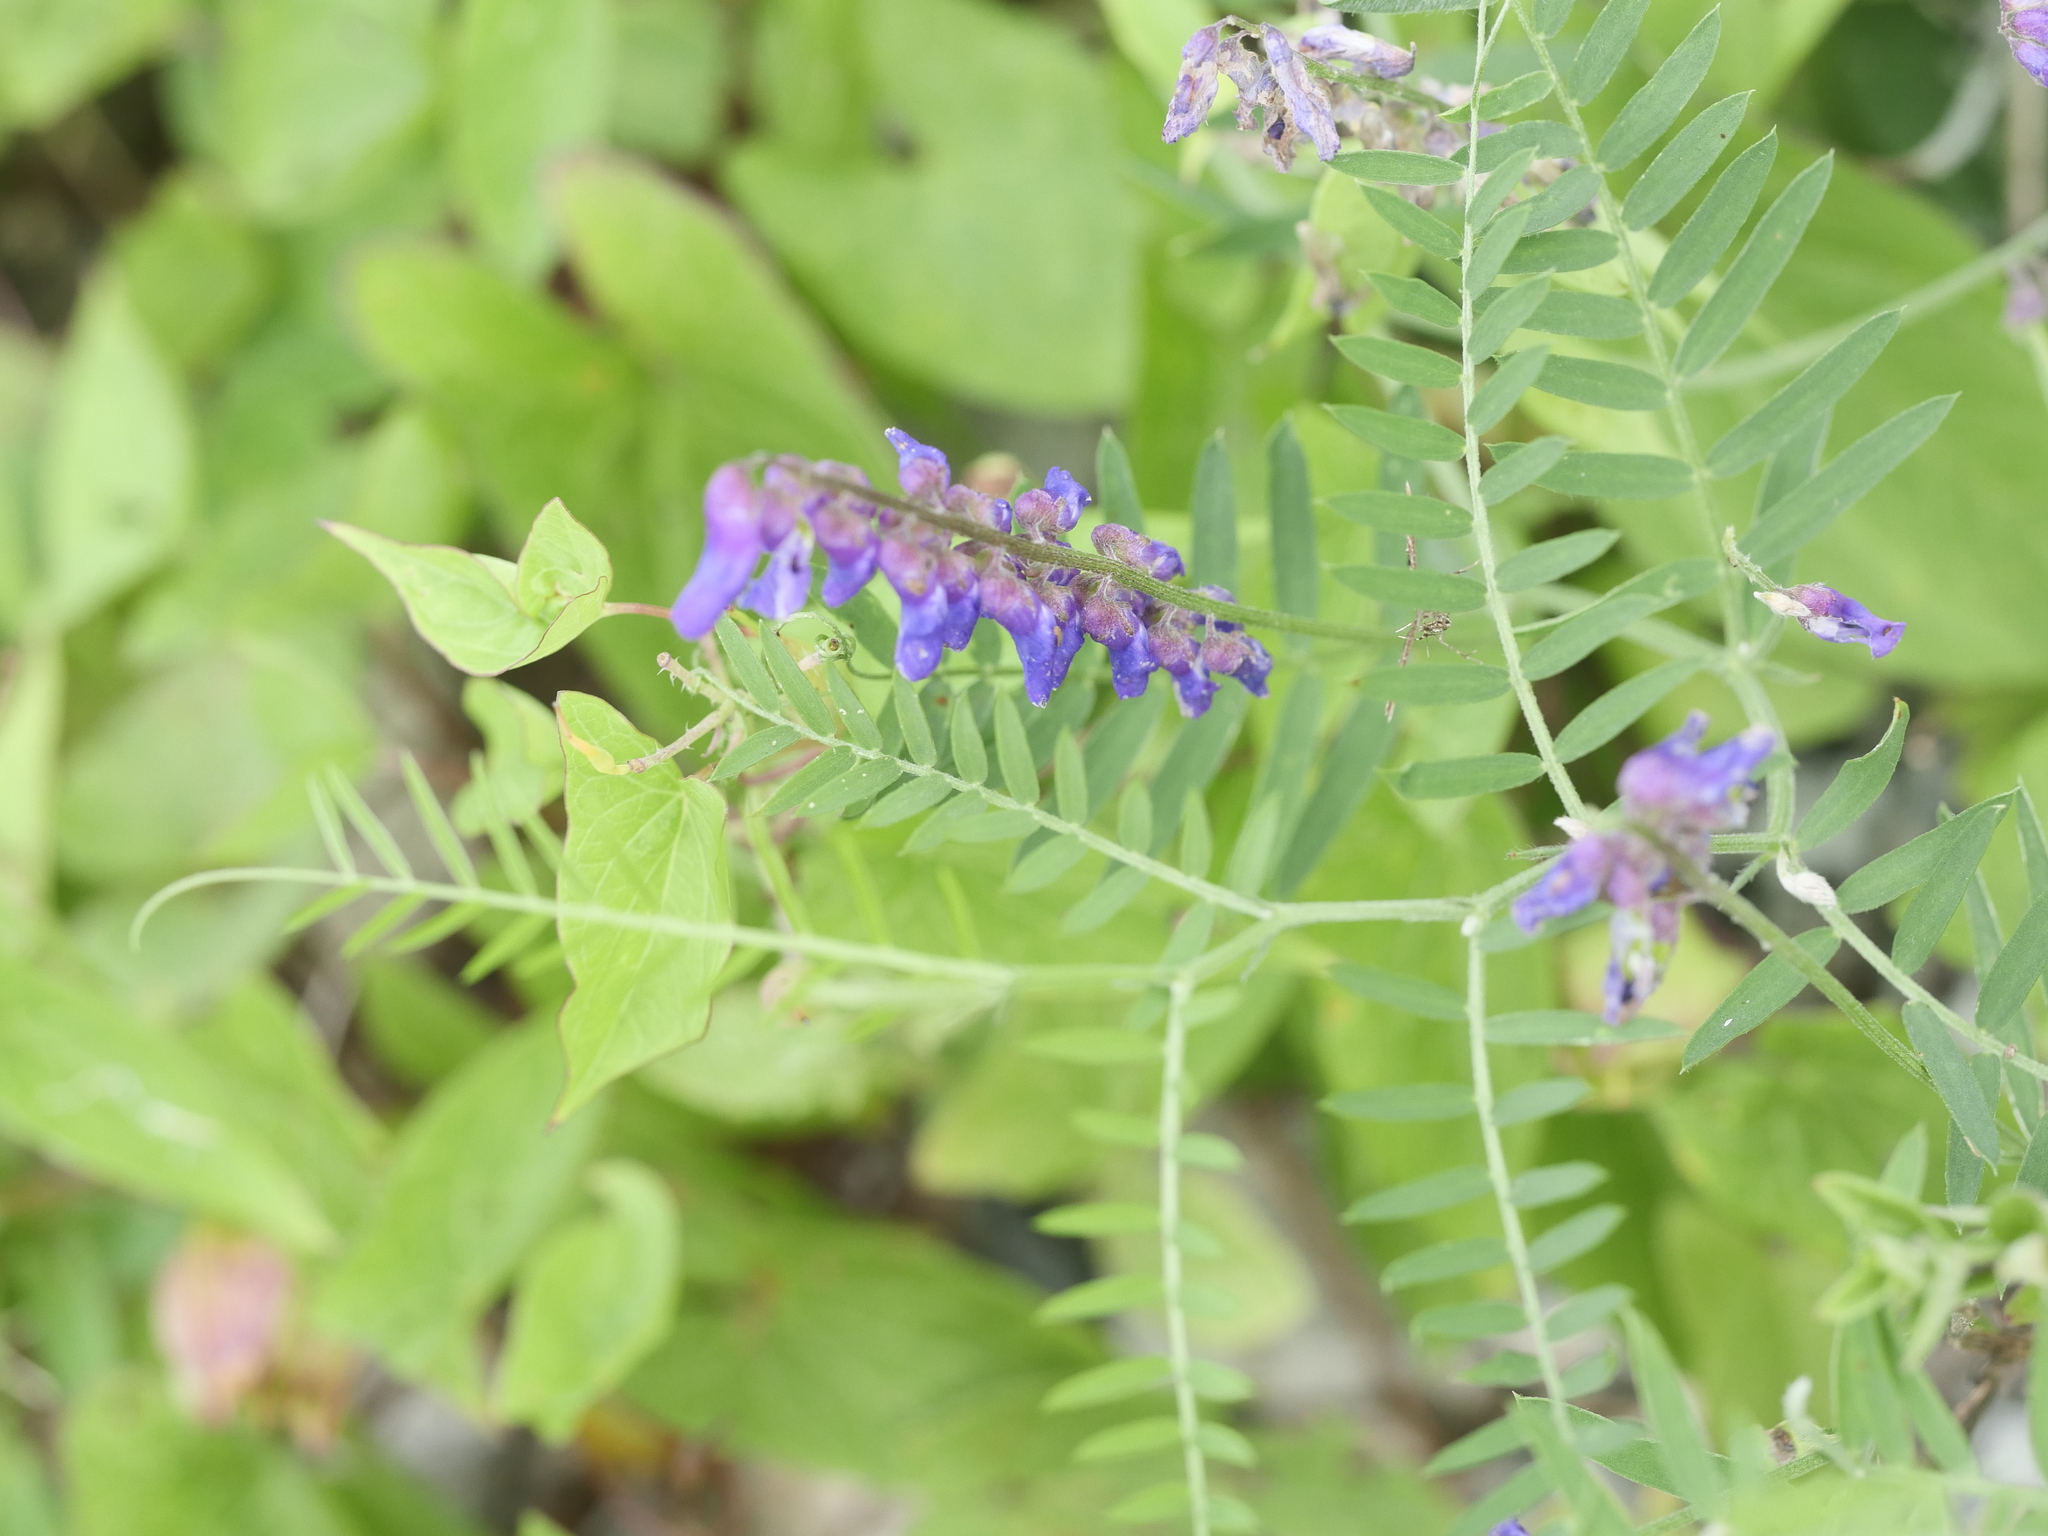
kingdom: Plantae
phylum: Tracheophyta
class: Magnoliopsida
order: Fabales
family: Fabaceae
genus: Vicia
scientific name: Vicia cracca
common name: Bird vetch
